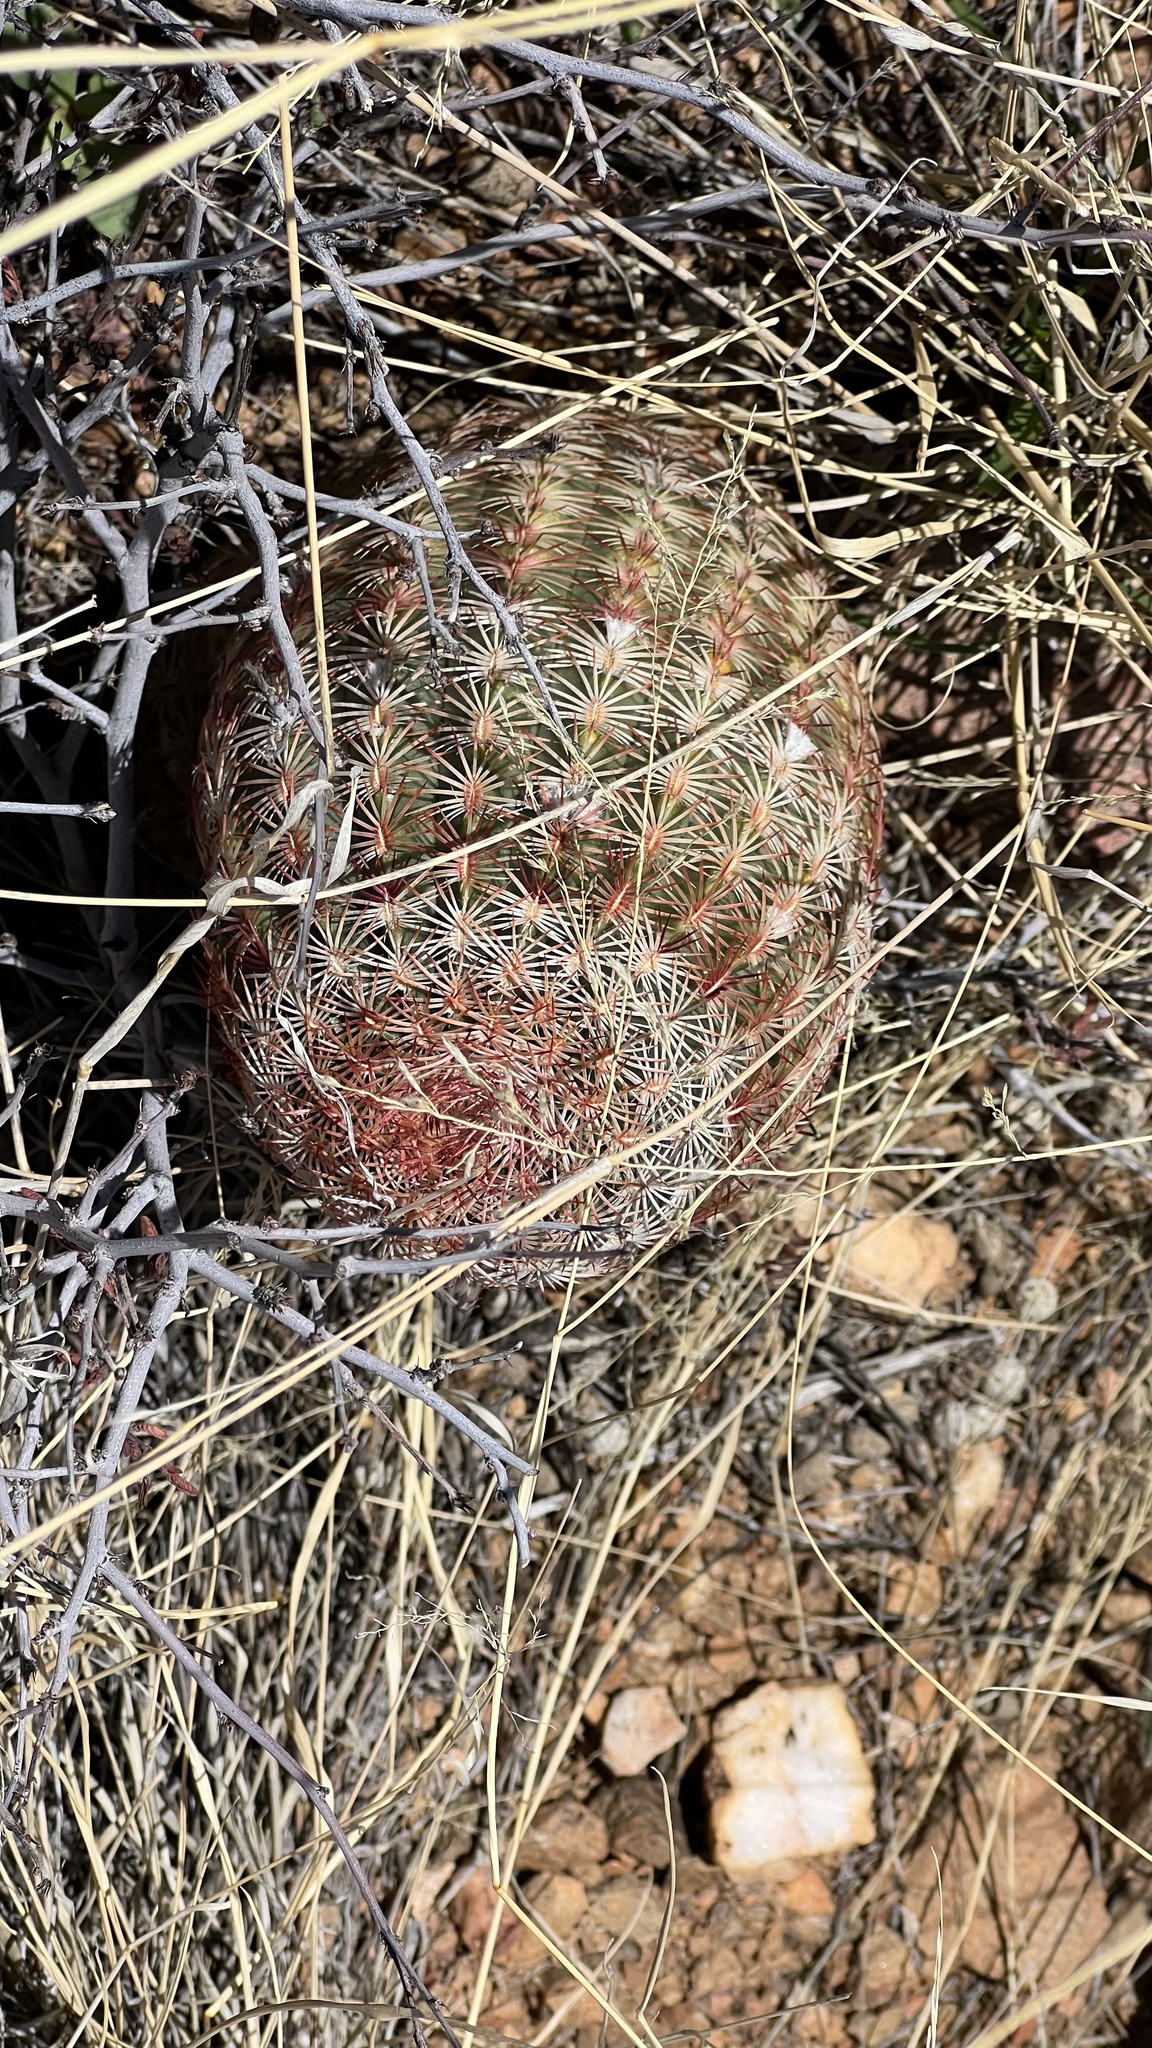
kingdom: Plantae
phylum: Tracheophyta
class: Magnoliopsida
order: Caryophyllales
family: Cactaceae
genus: Echinocereus
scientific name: Echinocereus rigidissimus
